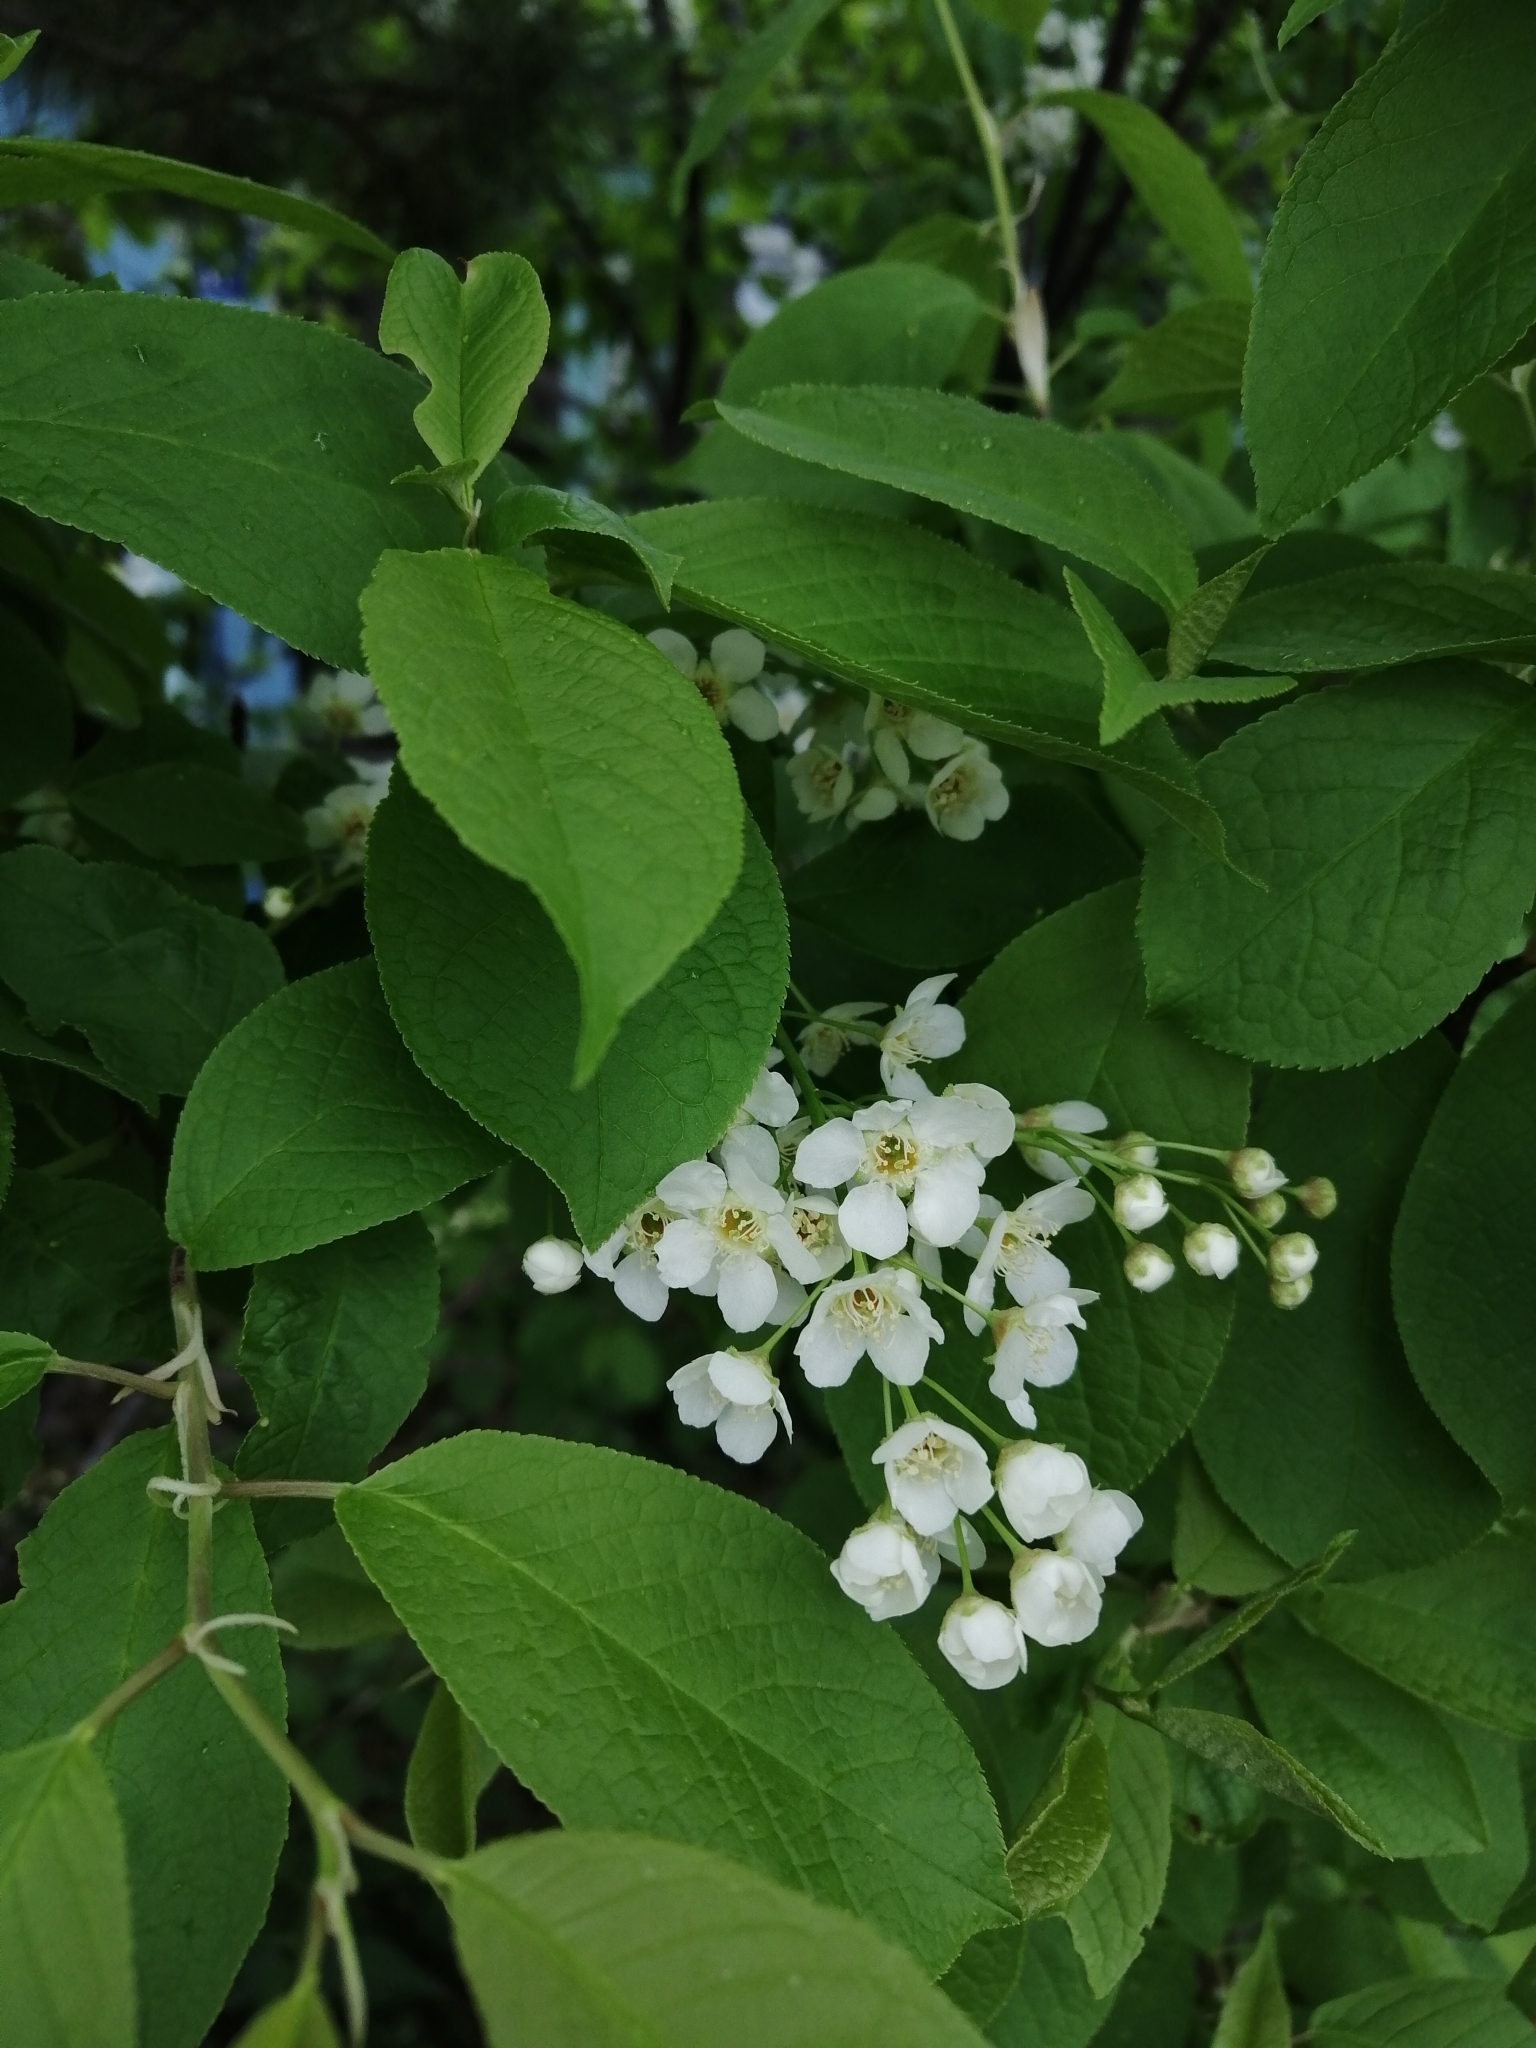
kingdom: Plantae
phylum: Tracheophyta
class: Magnoliopsida
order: Rosales
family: Rosaceae
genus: Prunus
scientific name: Prunus padus
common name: Bird cherry
